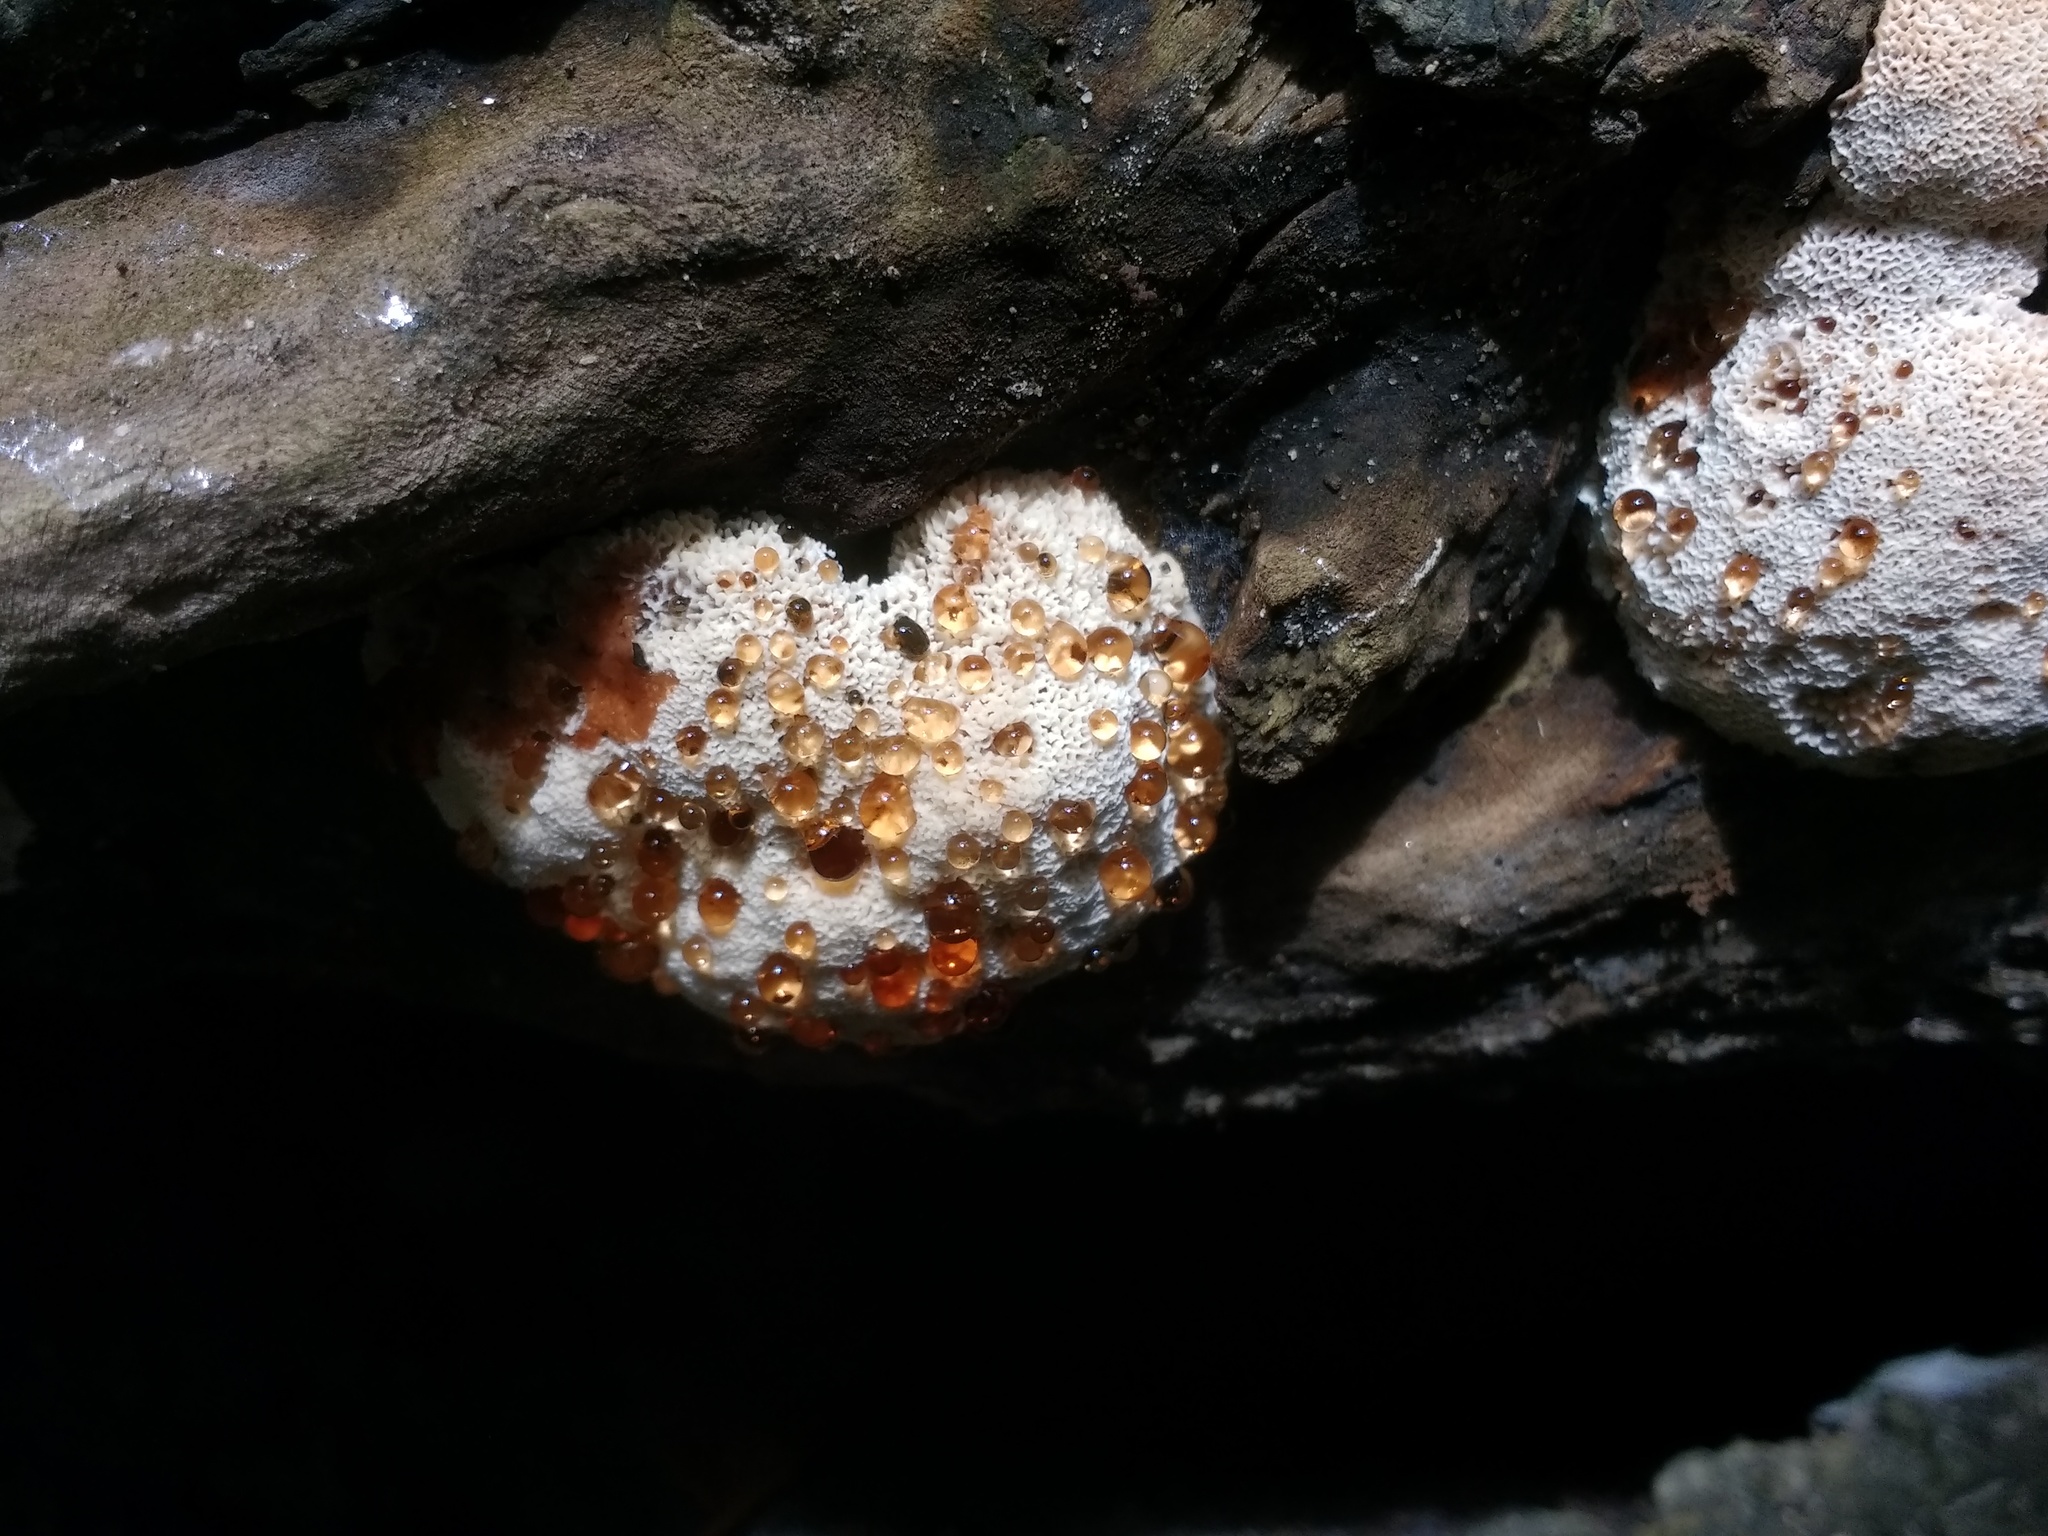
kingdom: Fungi
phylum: Basidiomycota
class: Agaricomycetes
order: Polyporales
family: Podoscyphaceae
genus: Abortiporus
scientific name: Abortiporus biennis
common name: Blushing rosette
